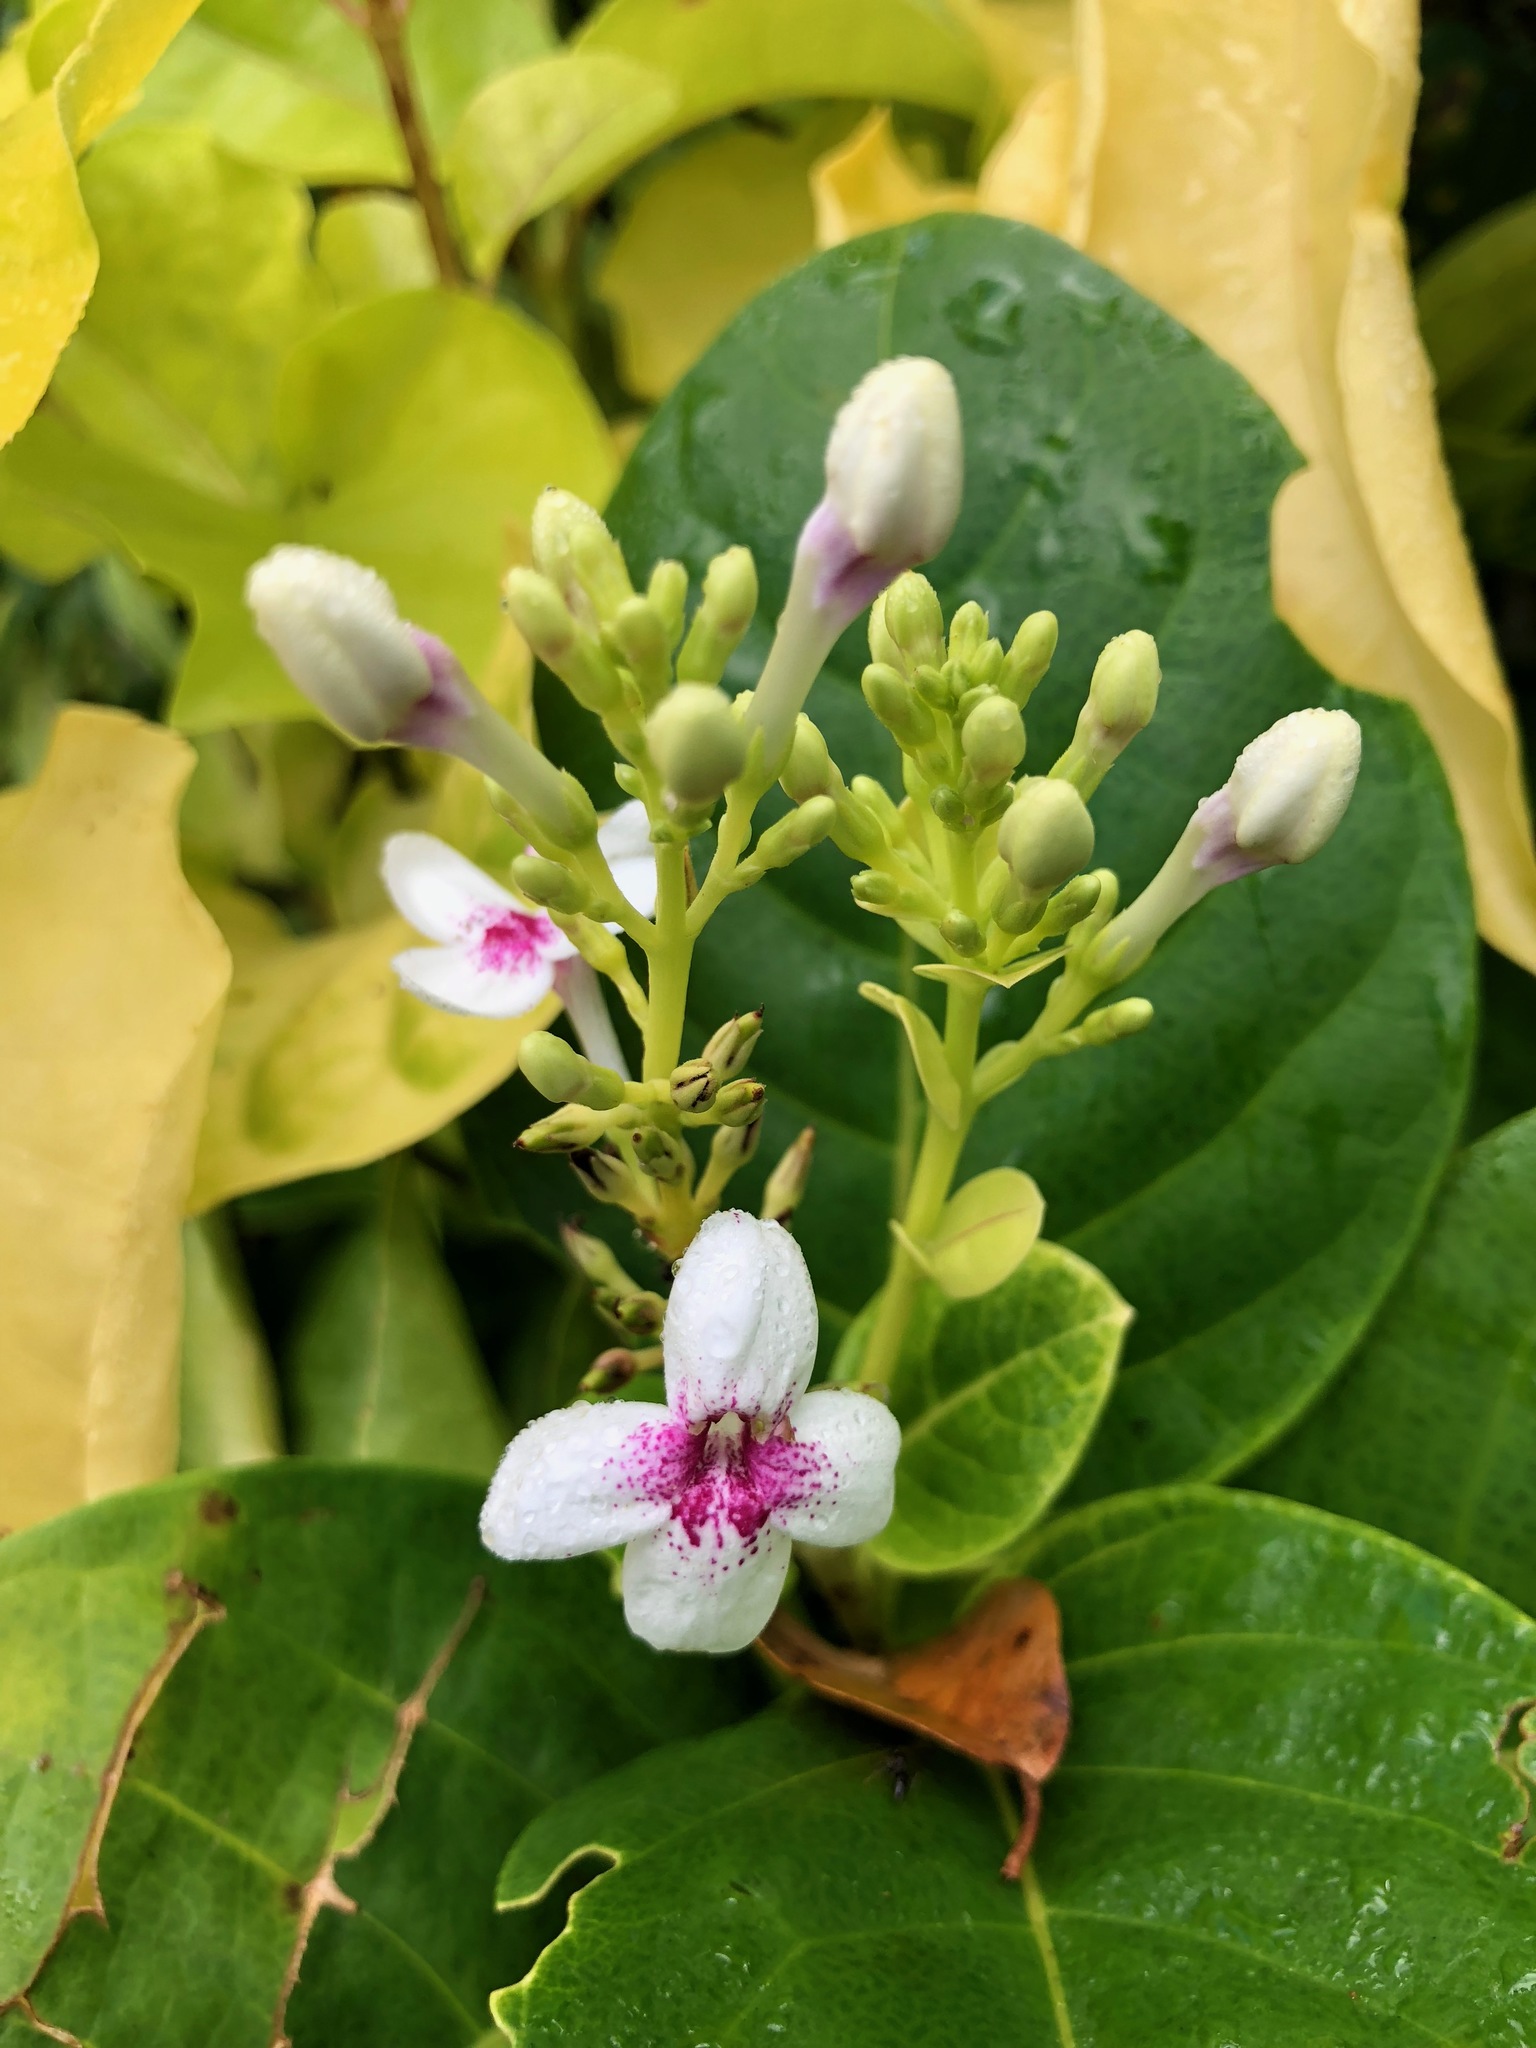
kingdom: Plantae
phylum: Tracheophyta
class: Magnoliopsida
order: Lamiales
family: Acanthaceae
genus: Pseuderanthemum
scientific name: Pseuderanthemum maculatum
